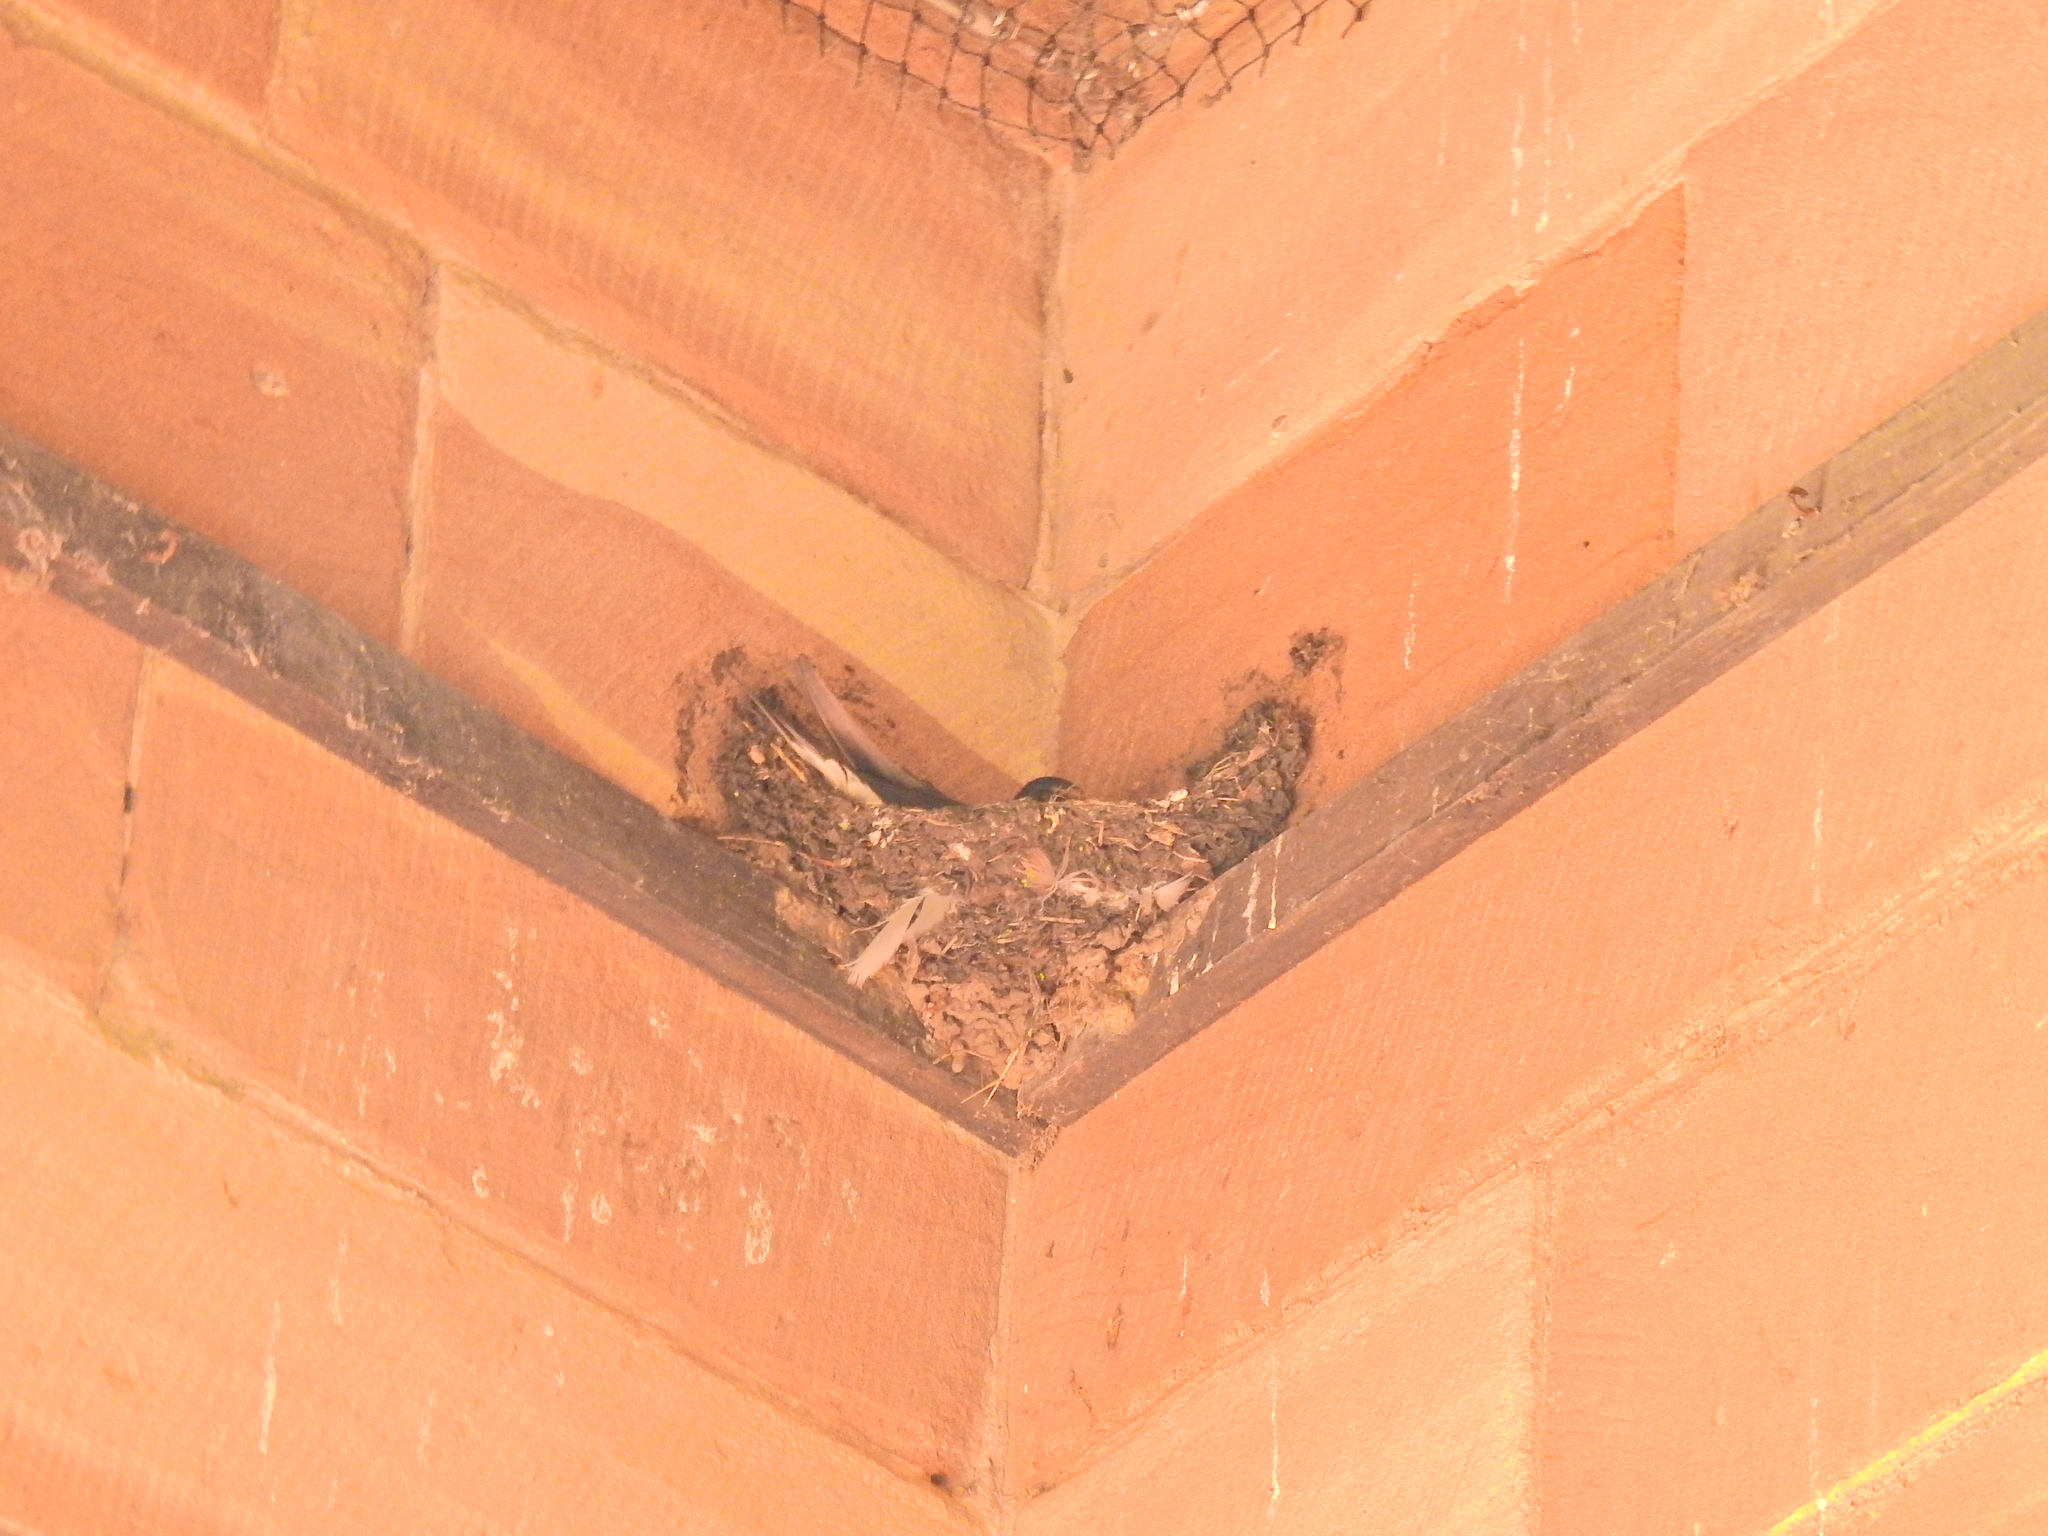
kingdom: Animalia
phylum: Chordata
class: Aves
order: Passeriformes
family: Hirundinidae
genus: Hirundo
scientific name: Hirundo rustica
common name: Barn swallow
